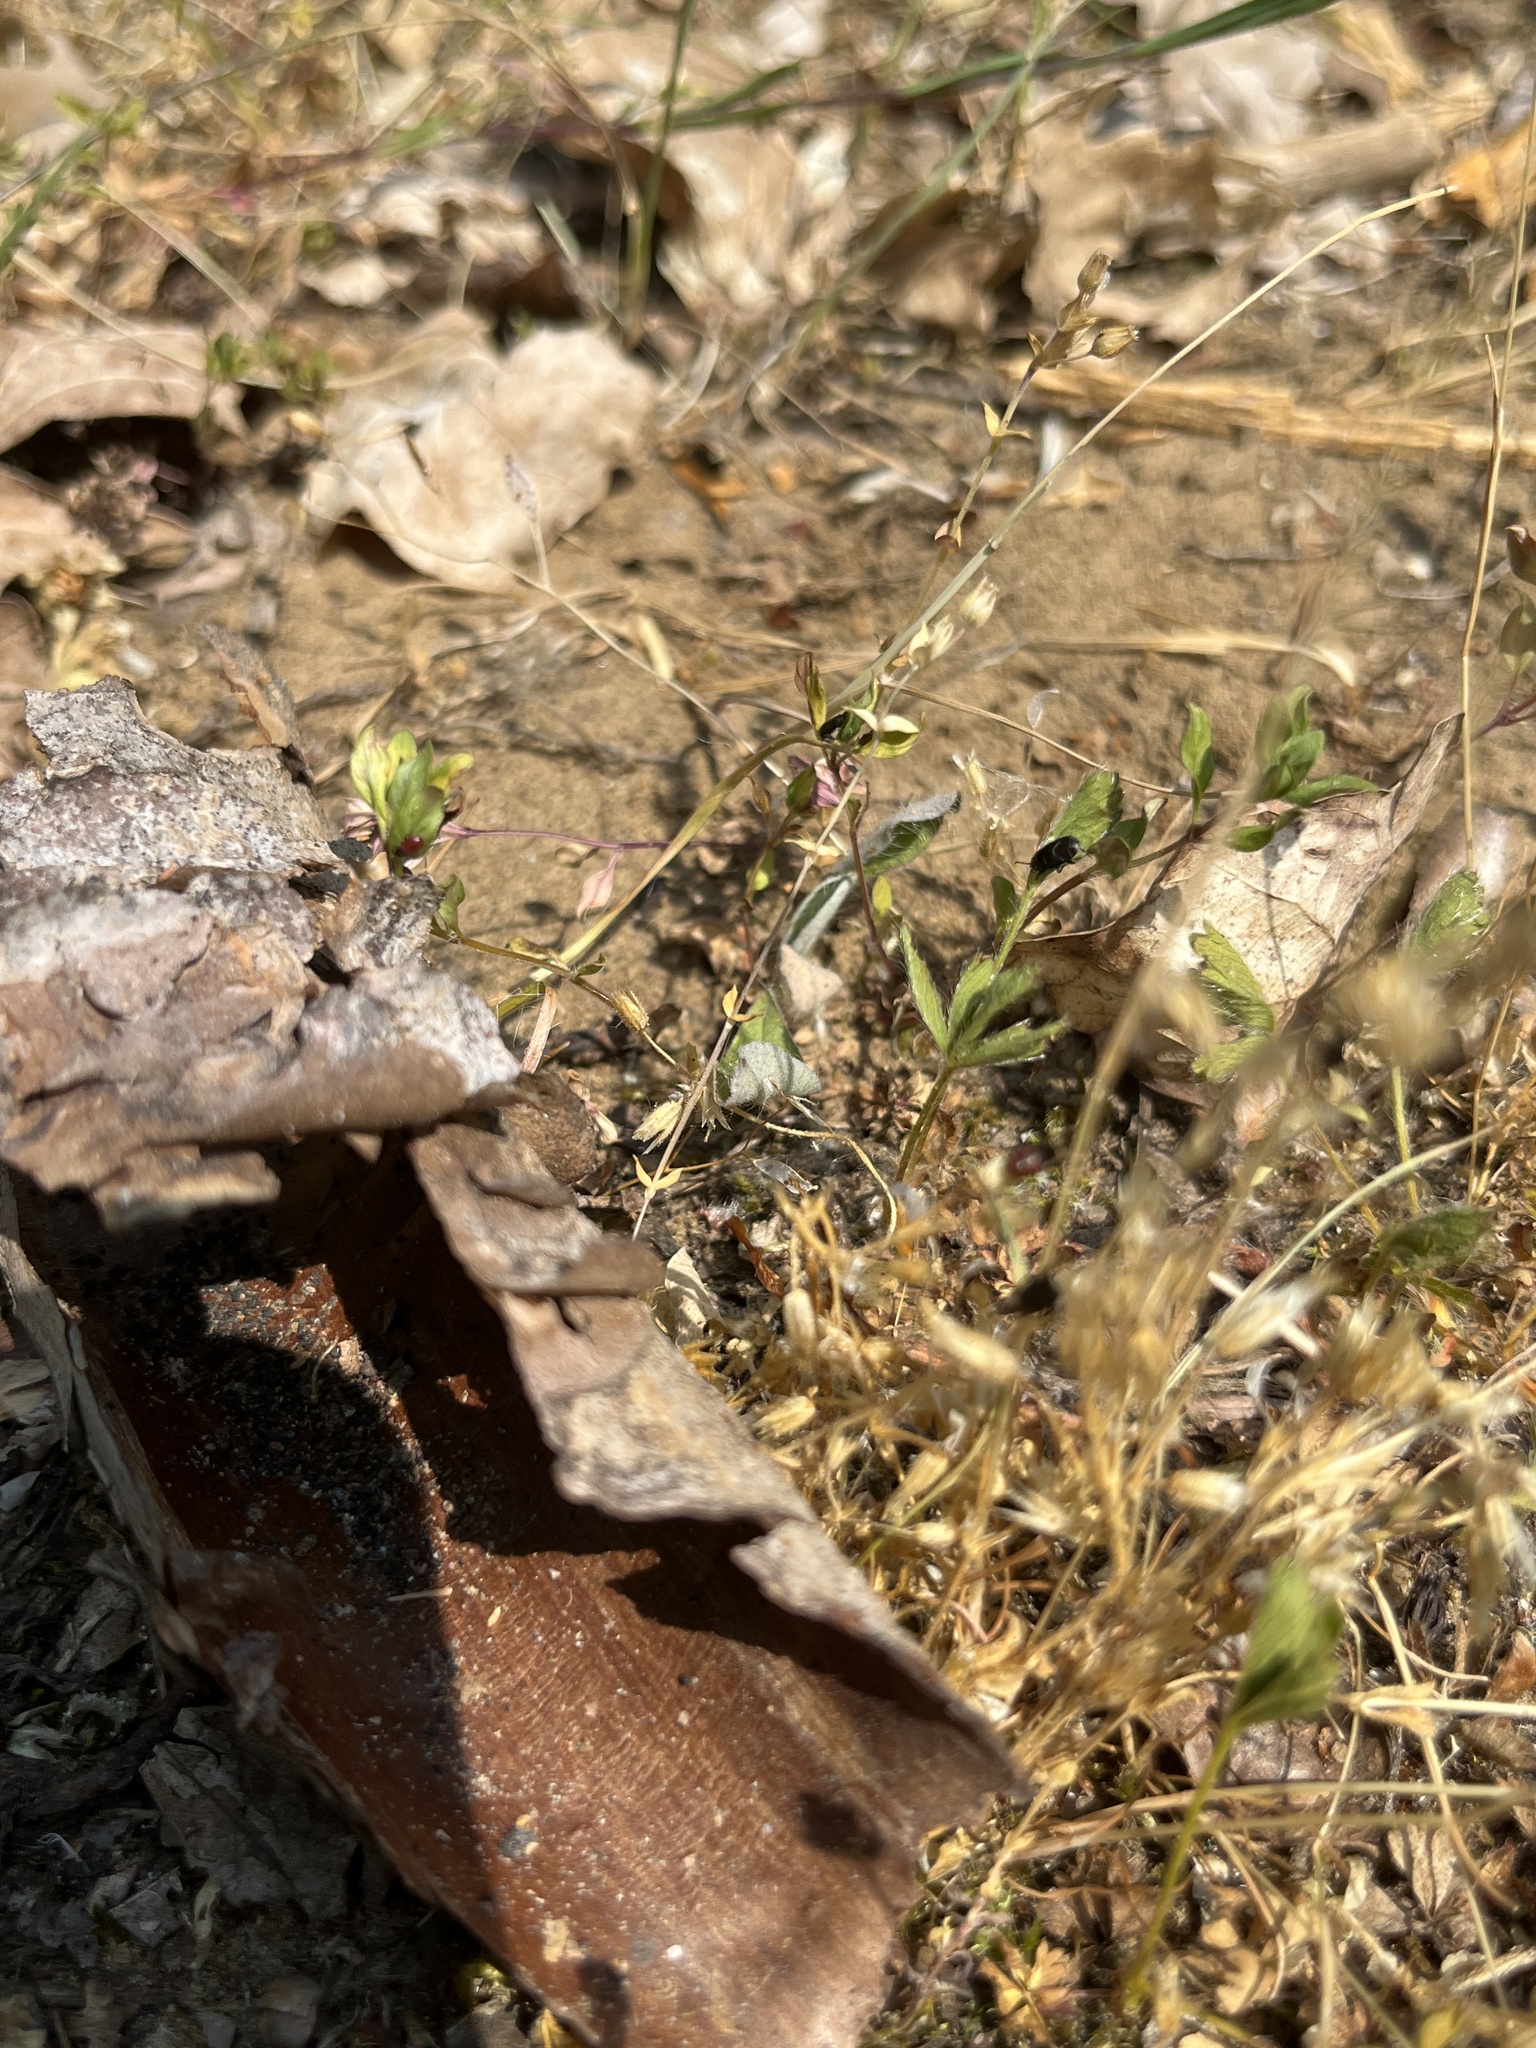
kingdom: Plantae
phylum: Tracheophyta
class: Magnoliopsida
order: Caryophyllales
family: Caryophyllaceae
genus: Arenaria
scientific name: Arenaria serpyllifolia
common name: Thyme-leaved sandwort
